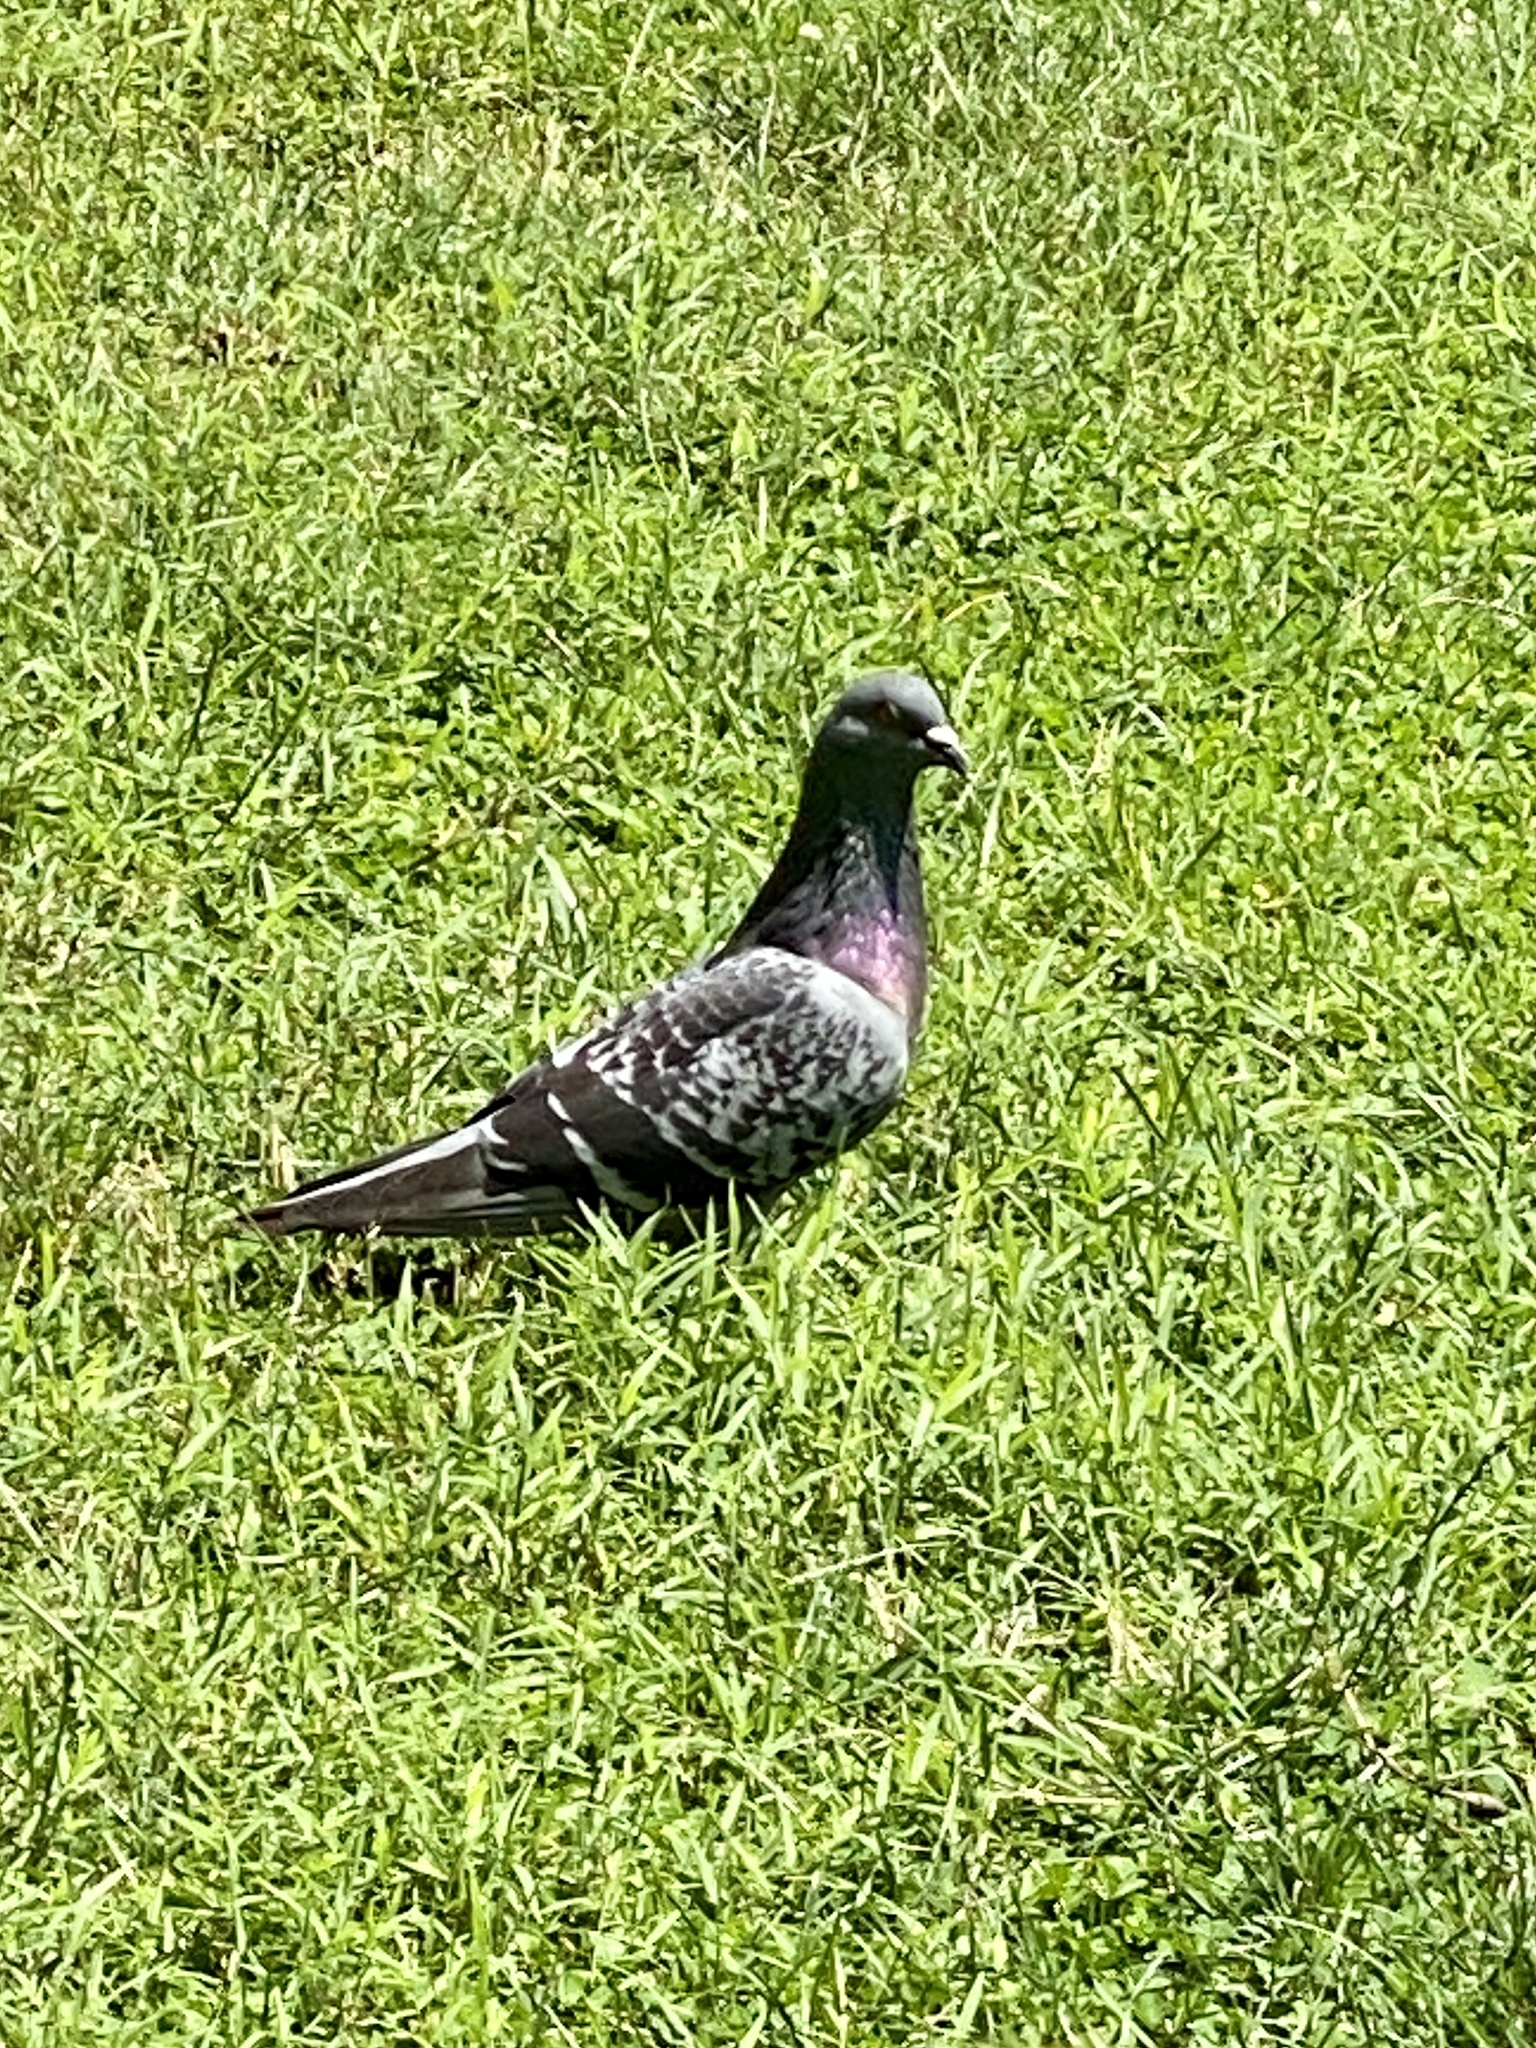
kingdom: Animalia
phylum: Chordata
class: Aves
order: Columbiformes
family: Columbidae
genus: Columba
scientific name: Columba livia
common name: Rock pigeon
